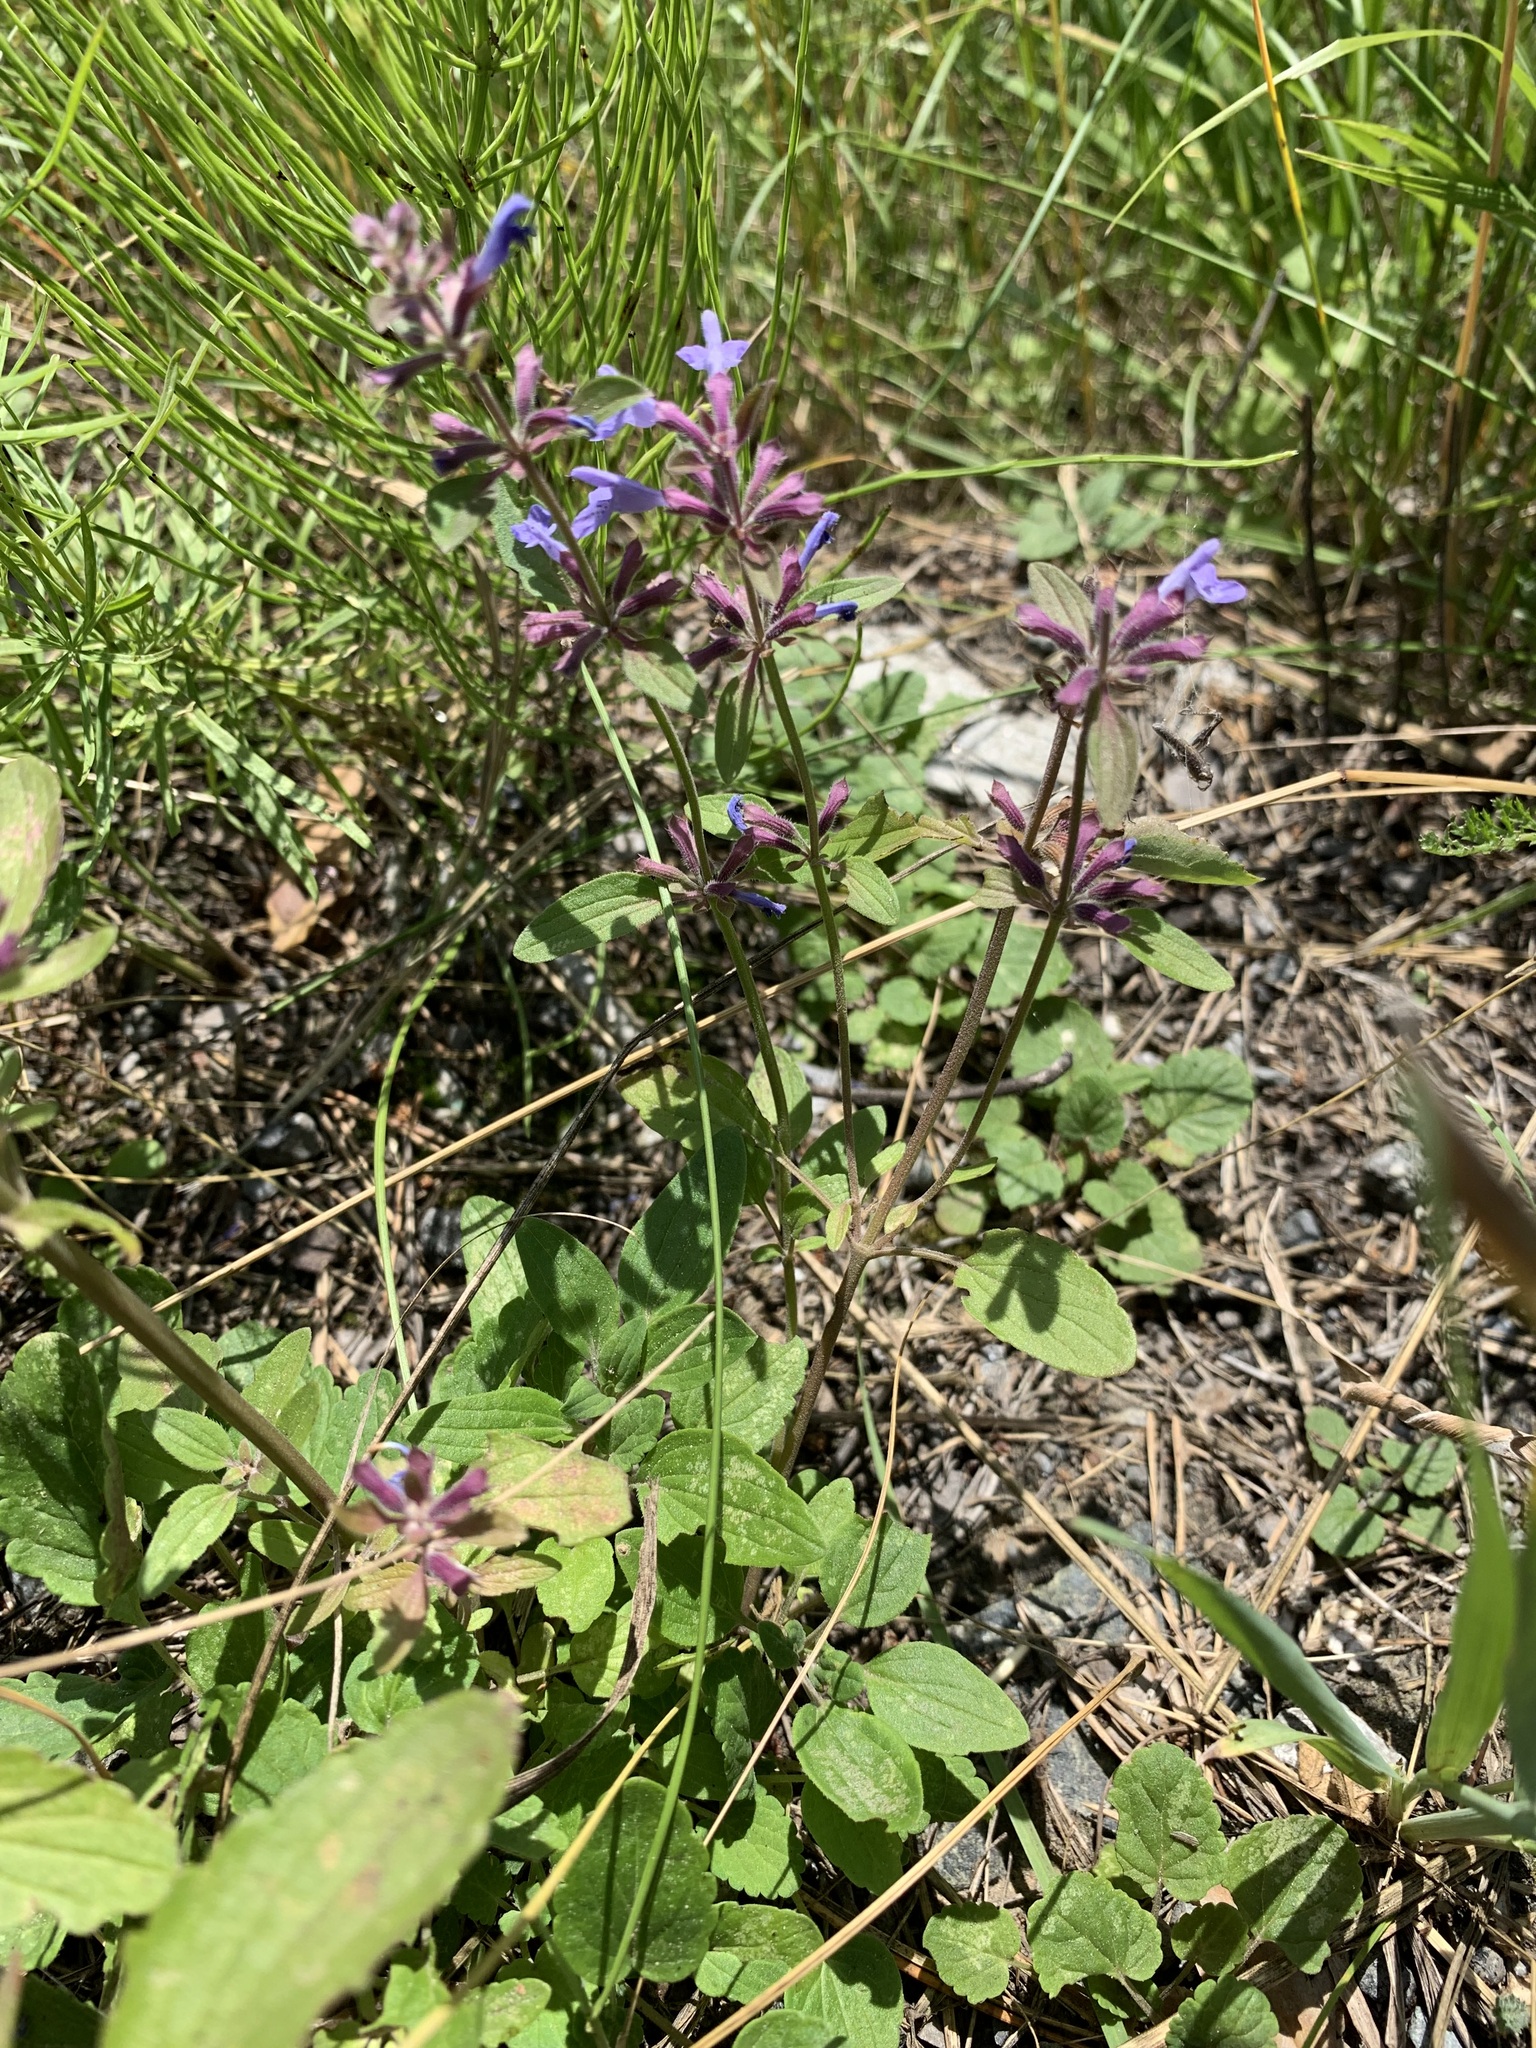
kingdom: Plantae
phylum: Tracheophyta
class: Magnoliopsida
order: Lamiales
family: Lamiaceae
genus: Dracocephalum
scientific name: Dracocephalum nutans
